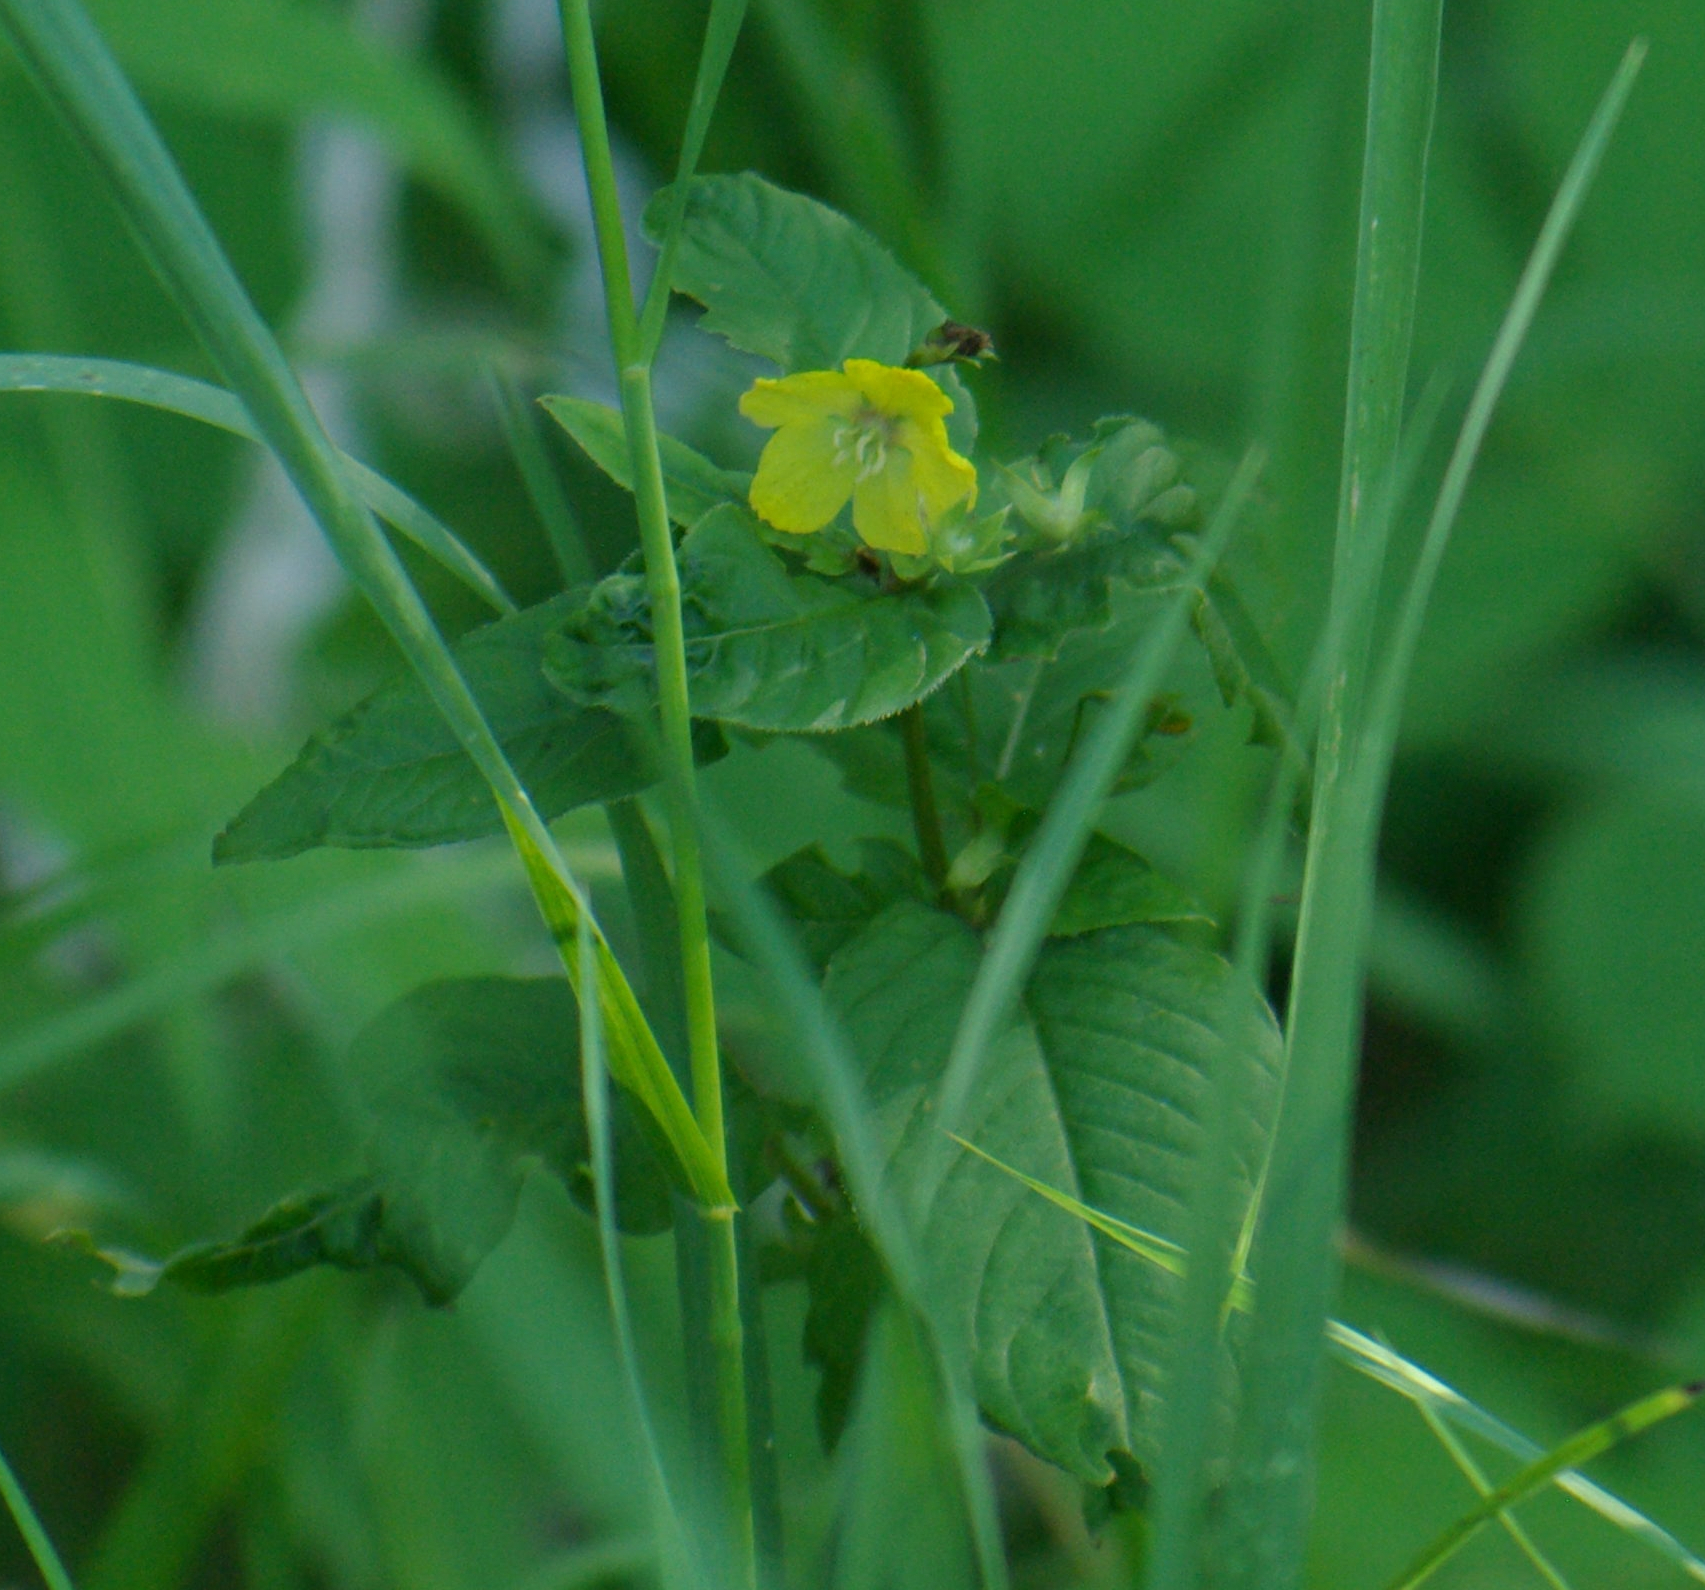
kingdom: Plantae
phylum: Tracheophyta
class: Magnoliopsida
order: Ericales
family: Primulaceae
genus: Lysimachia
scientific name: Lysimachia ciliata
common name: Fringed loosestrife
